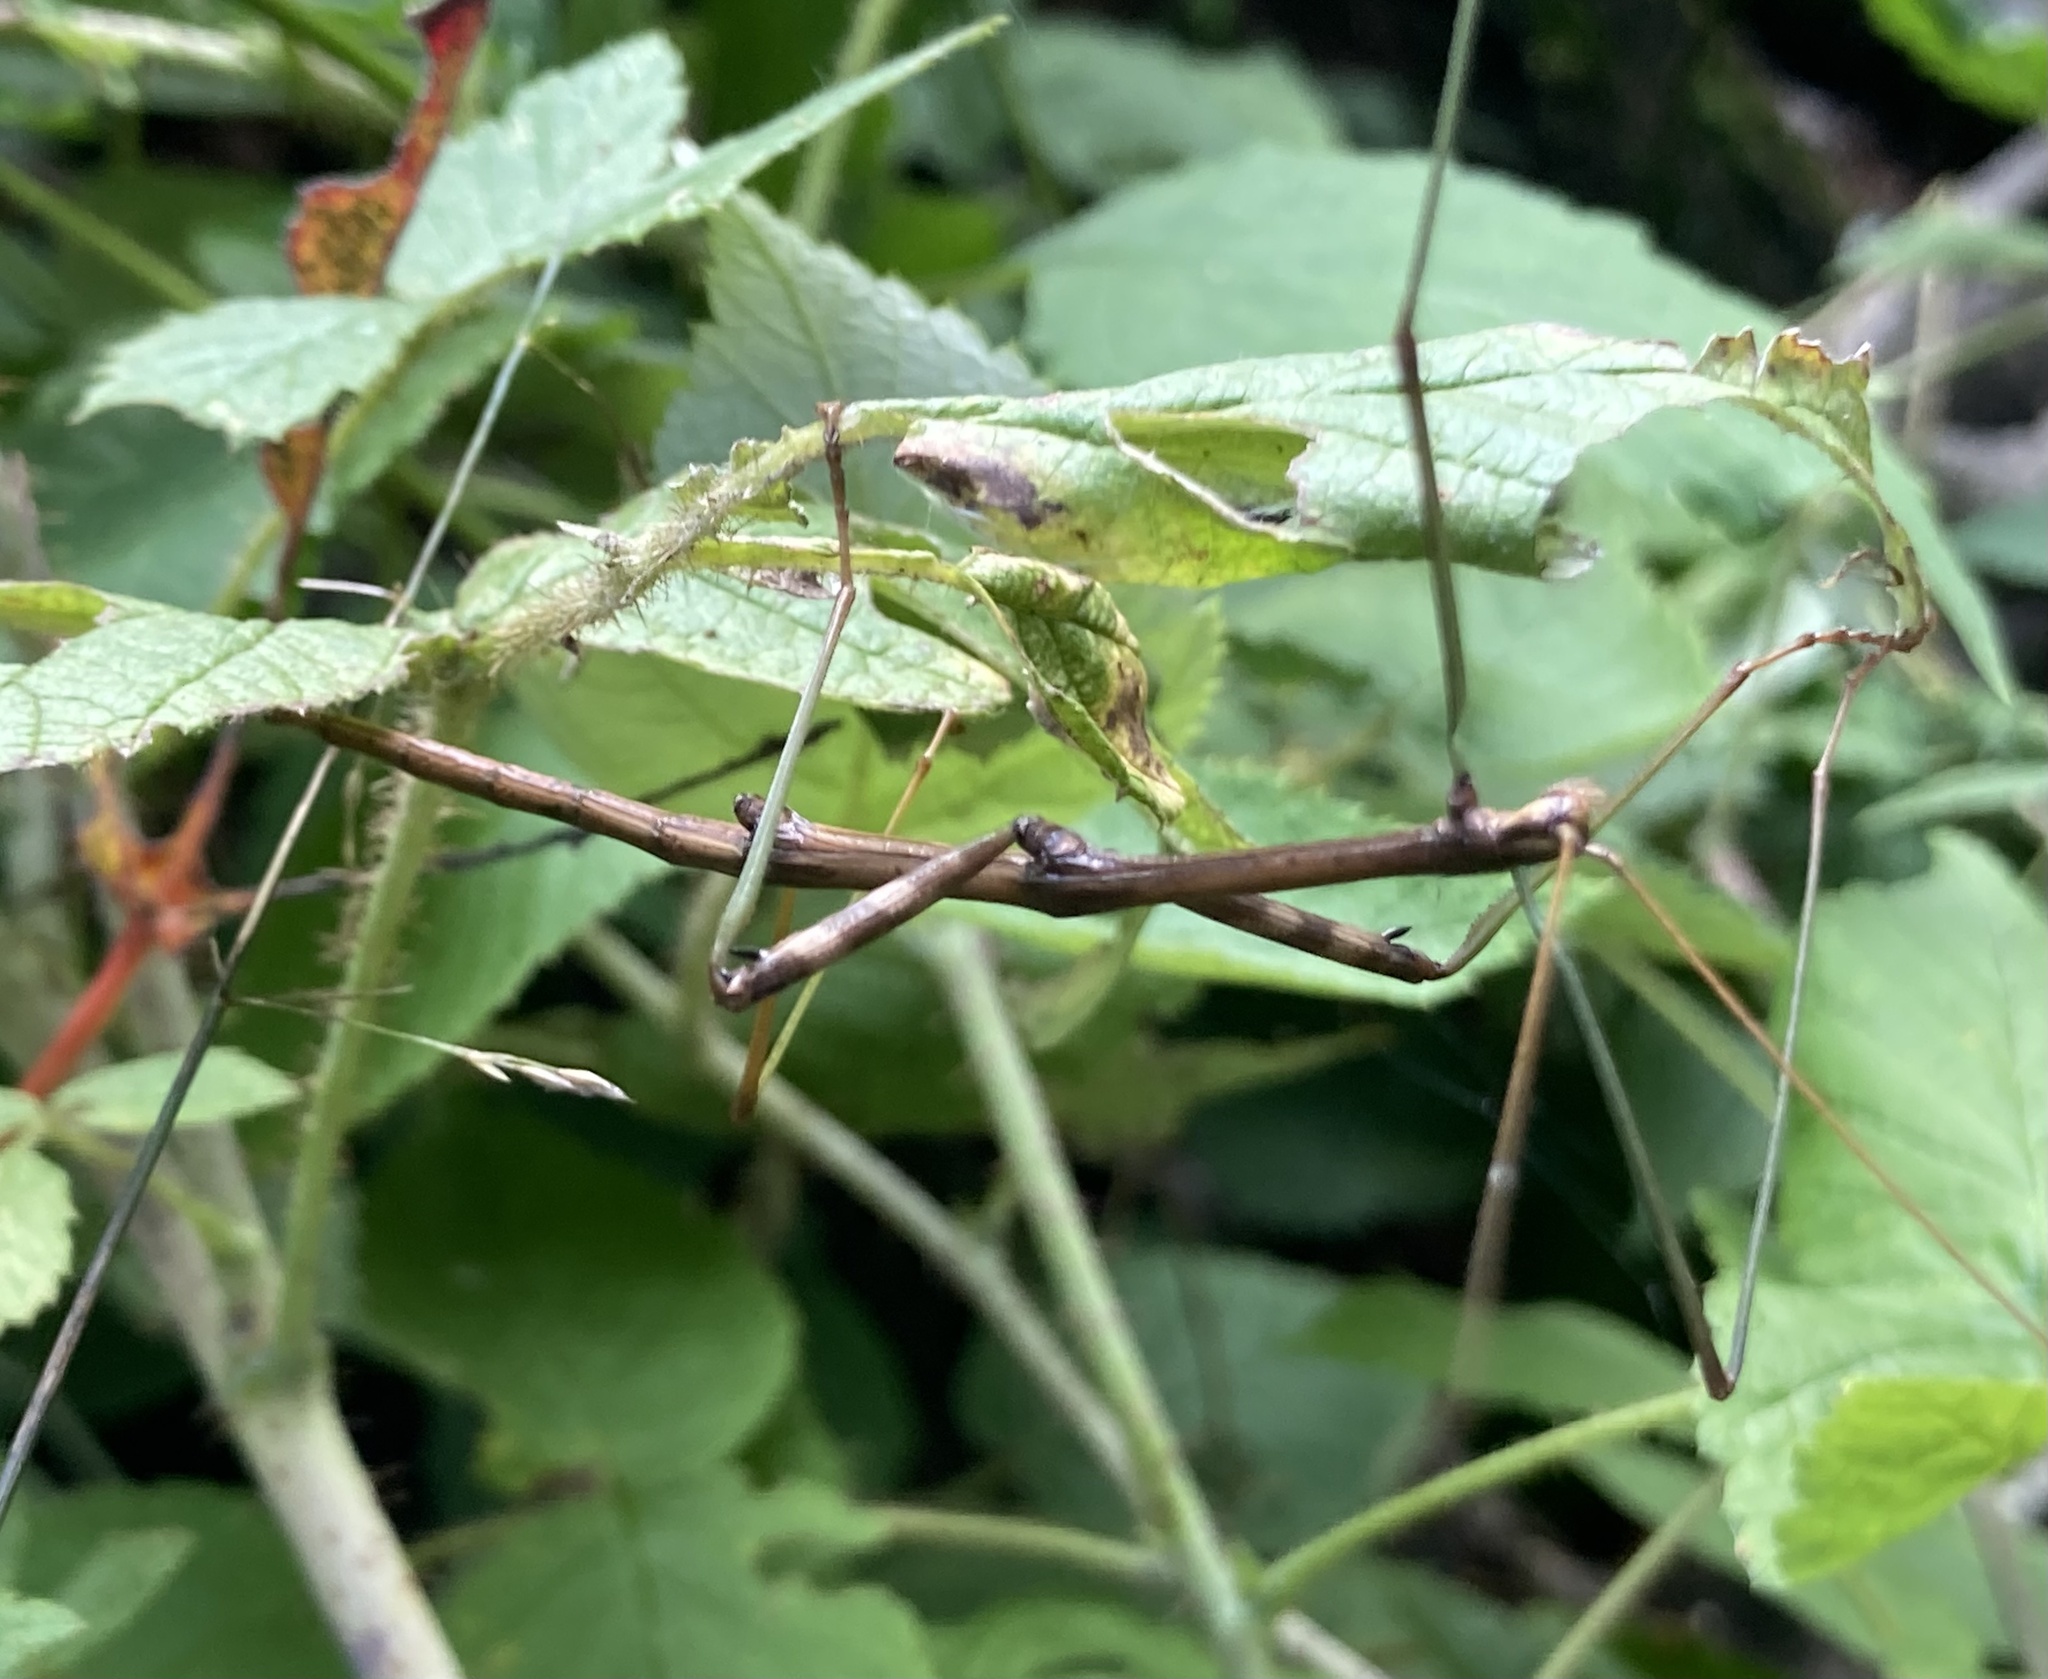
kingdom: Animalia
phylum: Arthropoda
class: Insecta
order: Phasmida
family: Diapheromeridae
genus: Diapheromera
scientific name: Diapheromera femorata
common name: Common american walkingstick
